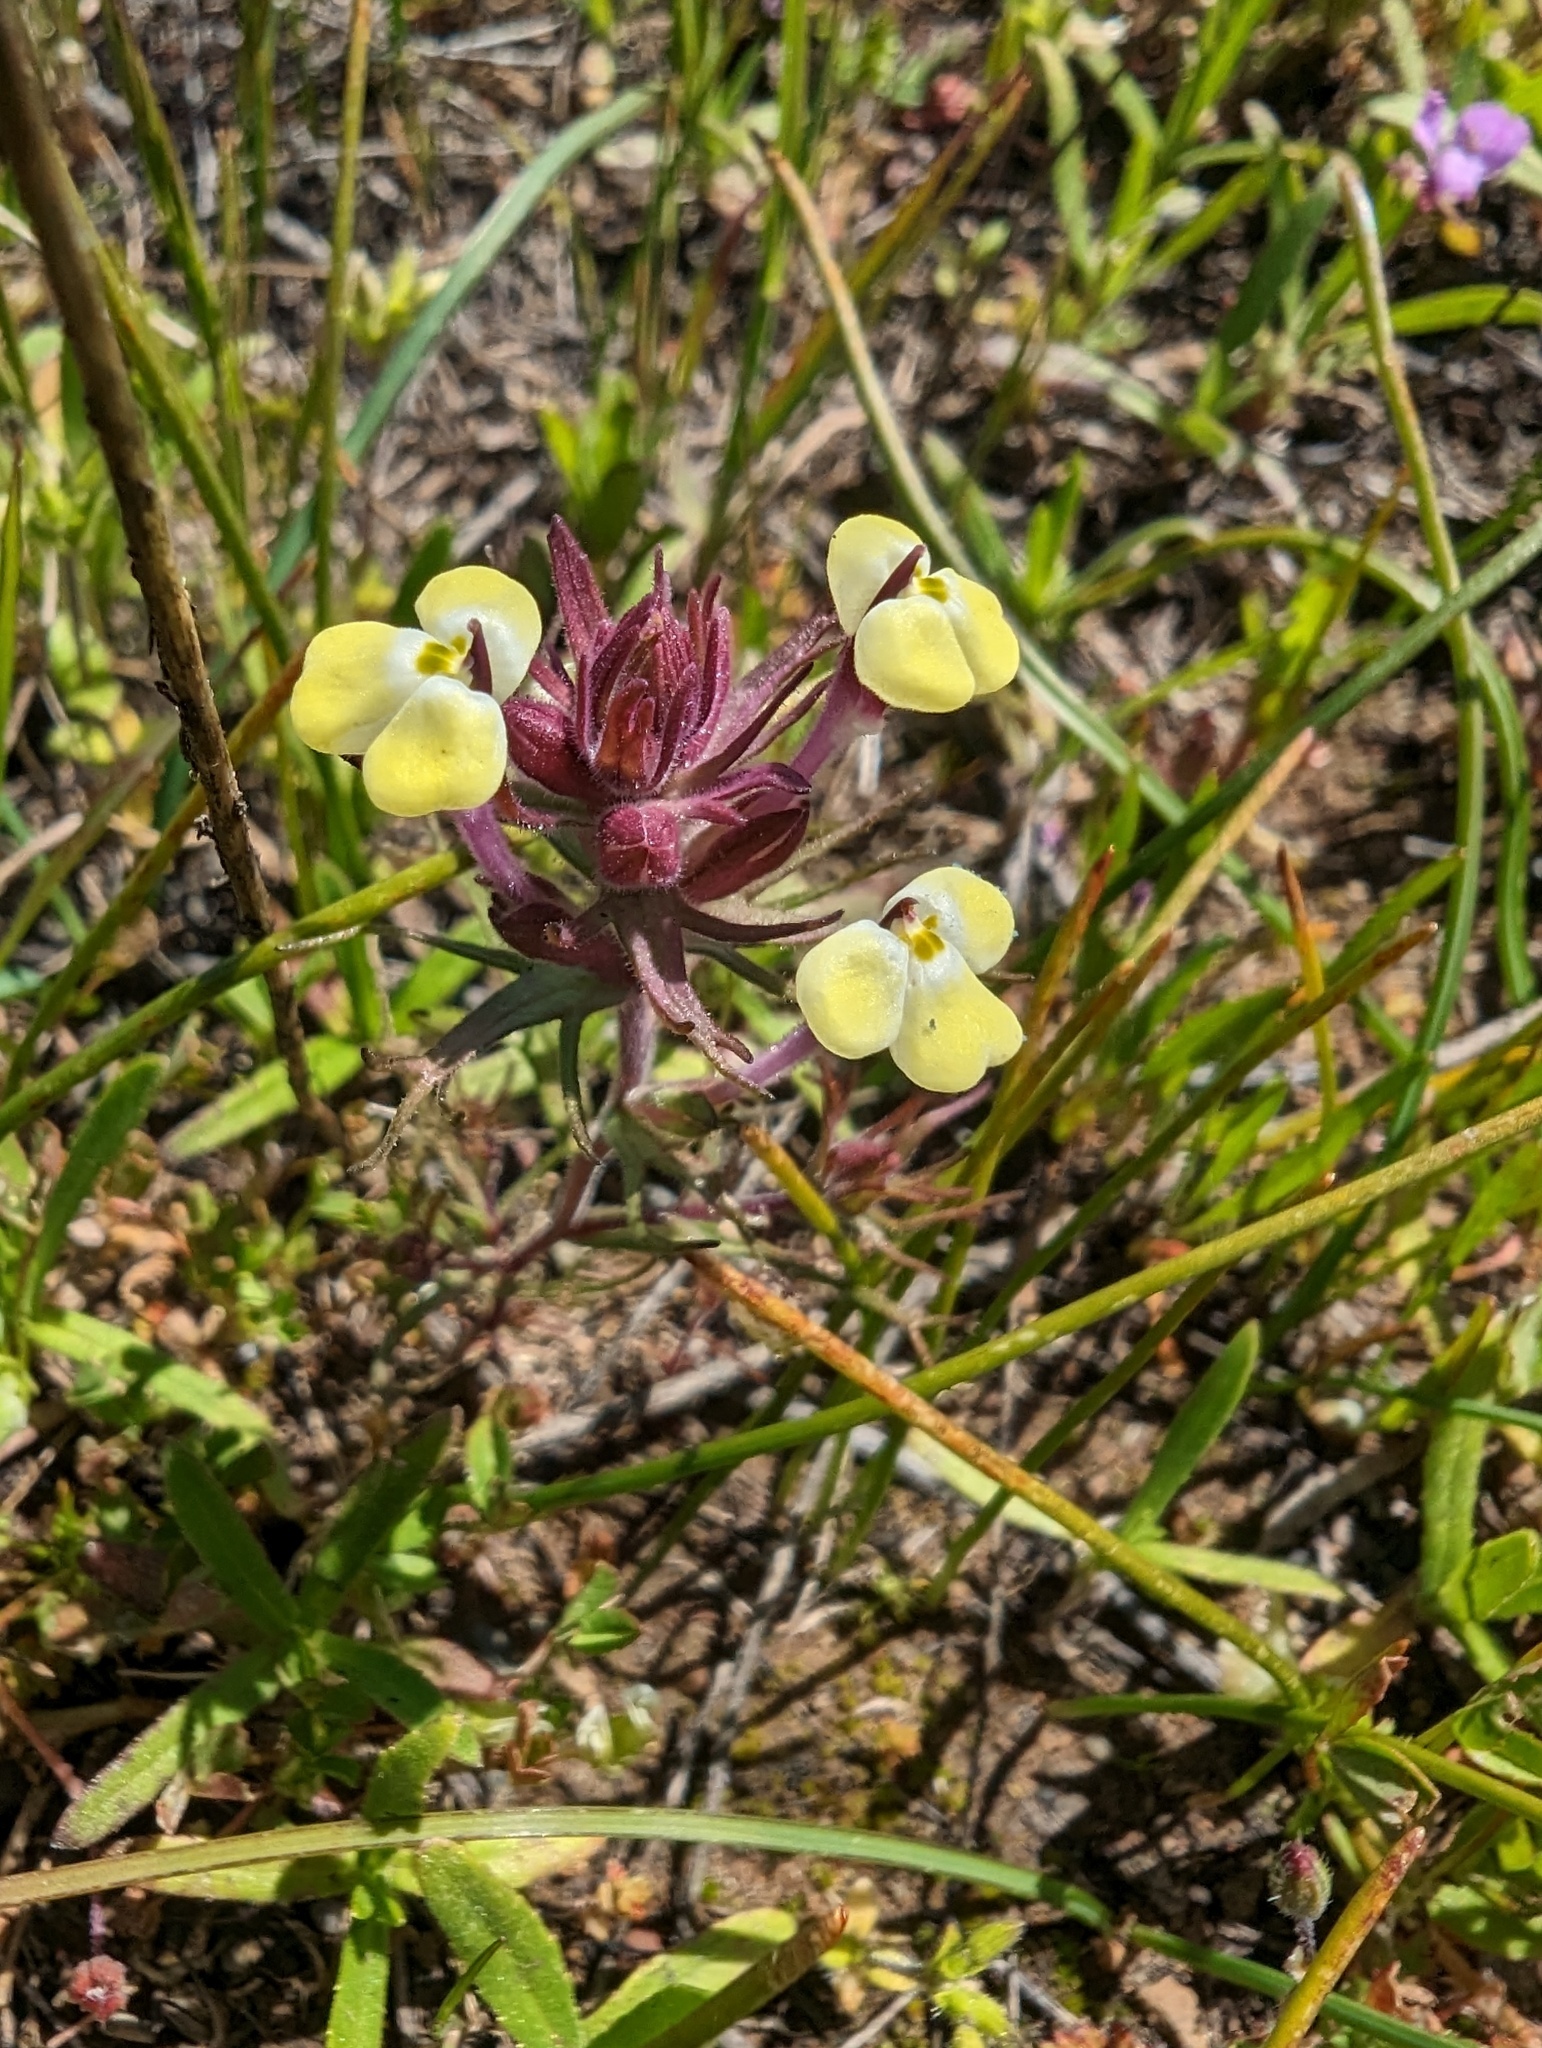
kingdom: Plantae
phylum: Tracheophyta
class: Magnoliopsida
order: Lamiales
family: Orobanchaceae
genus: Triphysaria
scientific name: Triphysaria eriantha
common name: Johnny-tuck
